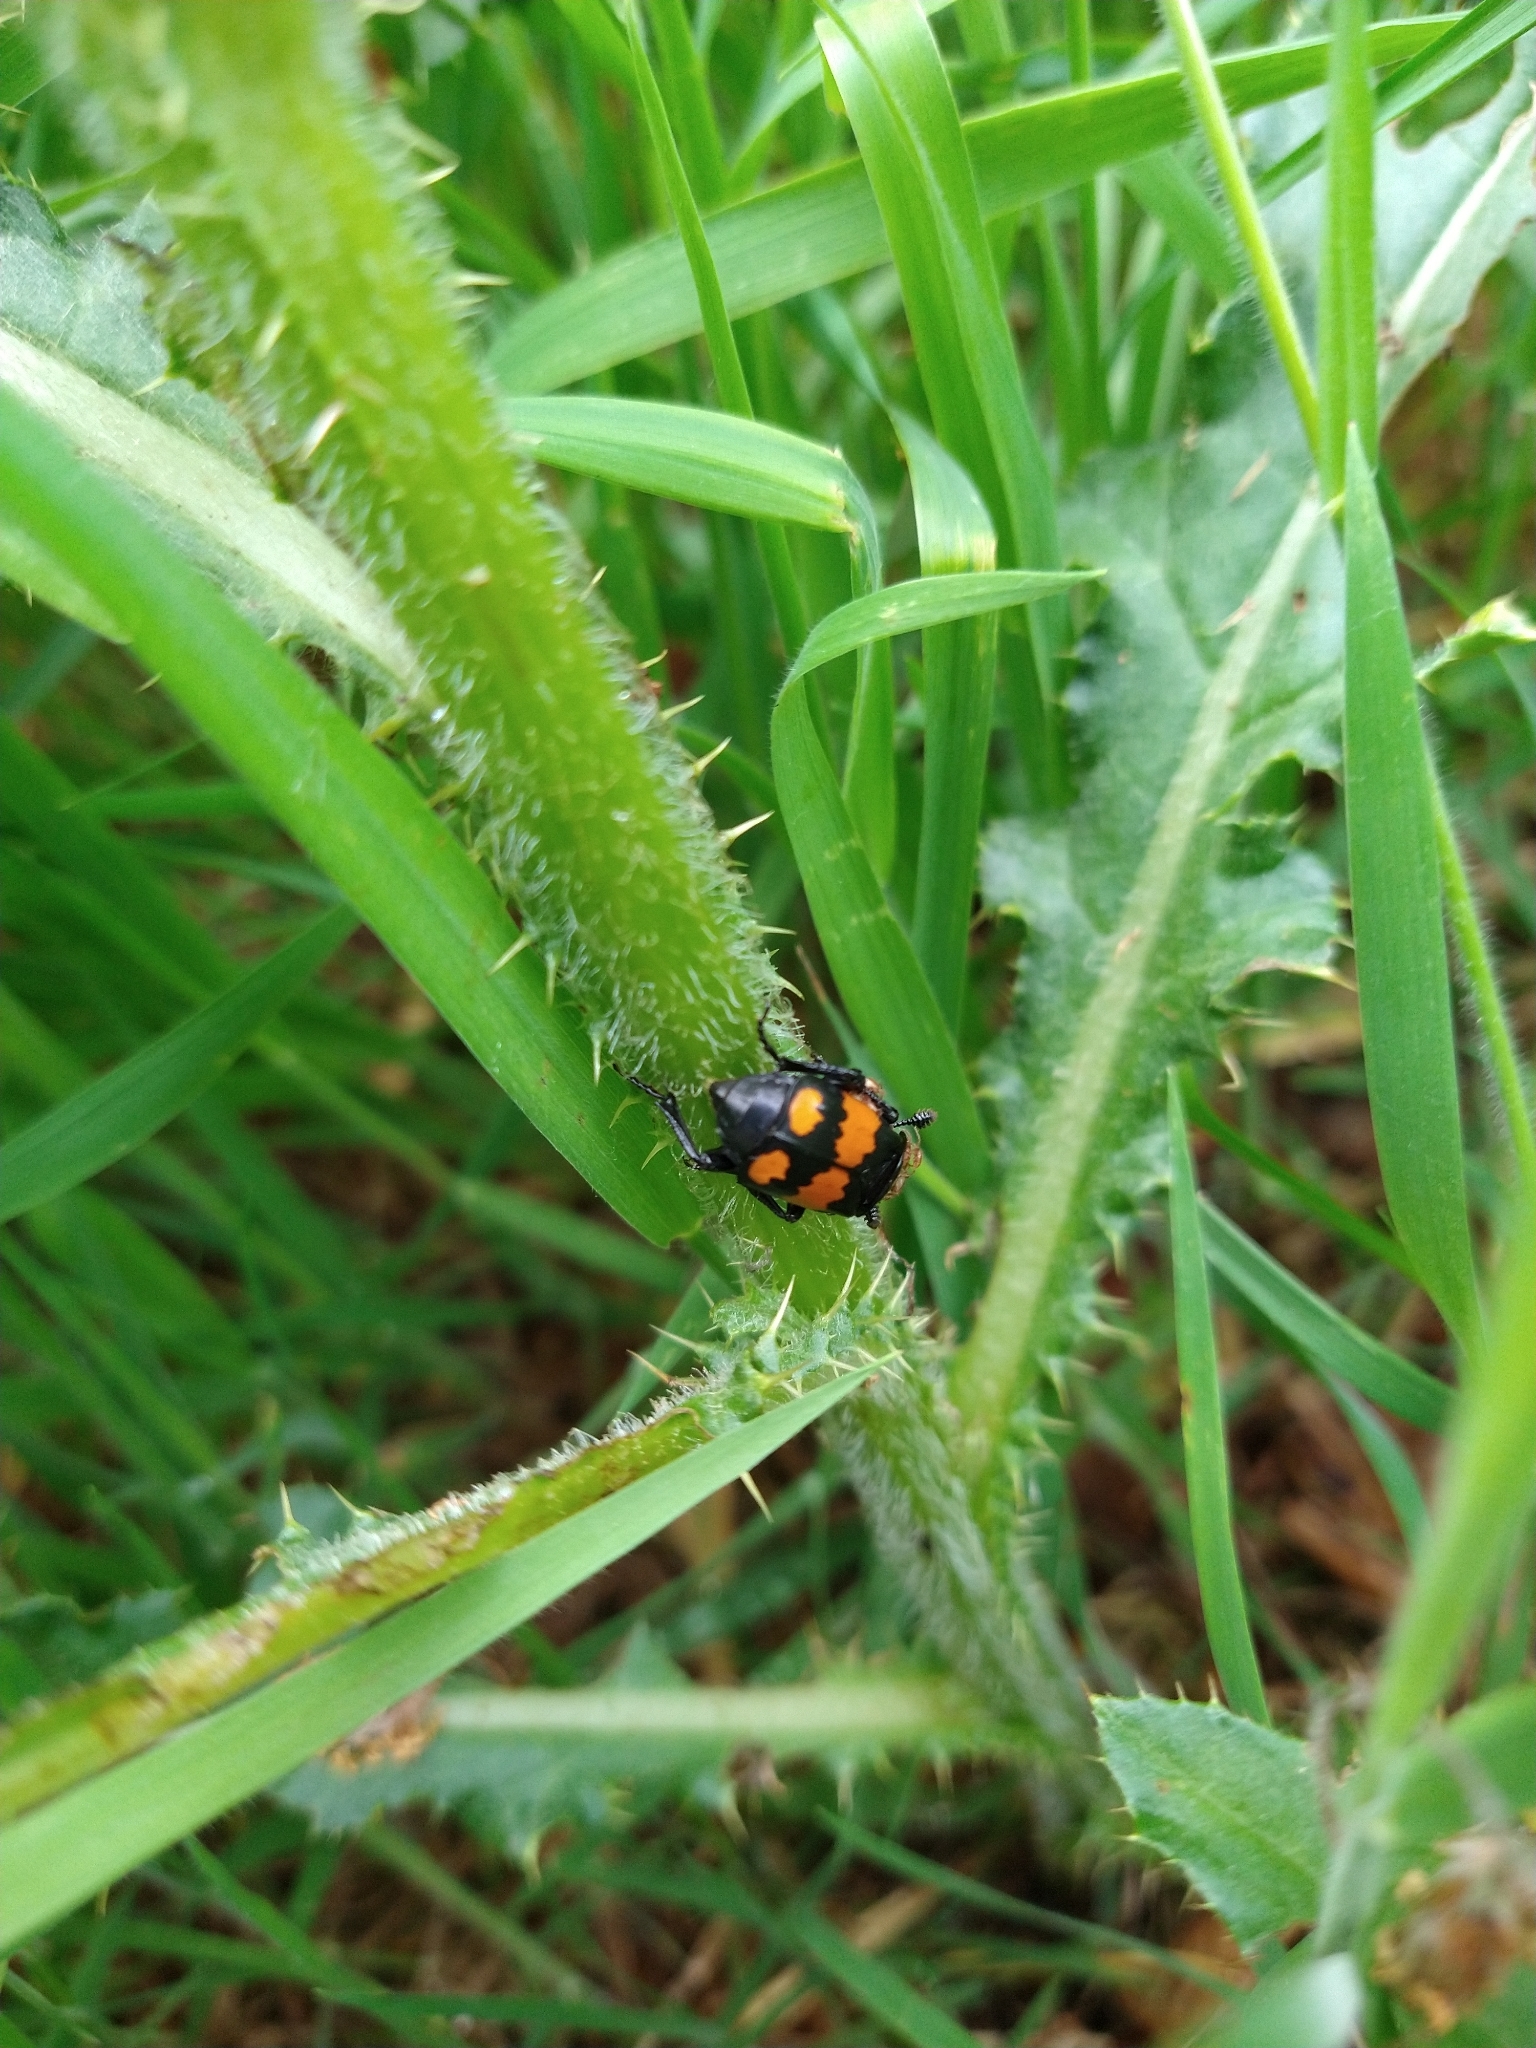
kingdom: Animalia
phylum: Arthropoda
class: Insecta
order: Coleoptera
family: Staphylinidae
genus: Nicrophorus
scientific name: Nicrophorus vespilloides
